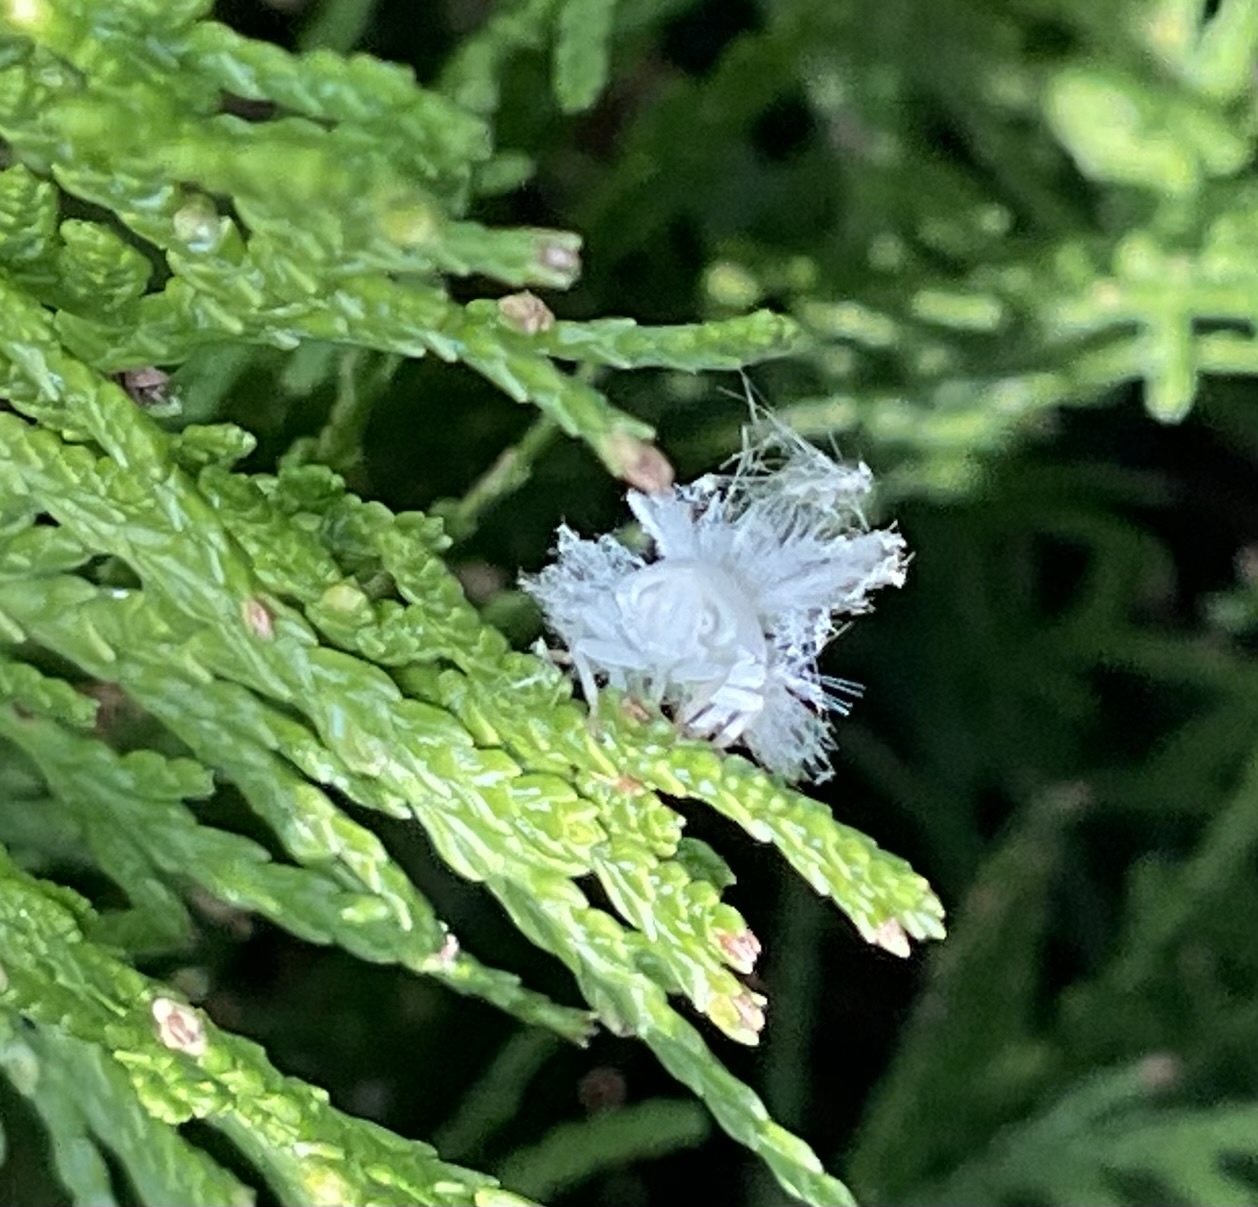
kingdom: Animalia
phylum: Arthropoda
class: Insecta
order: Hemiptera
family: Ricaniidae
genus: Ricania
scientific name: Ricania shantungensis
